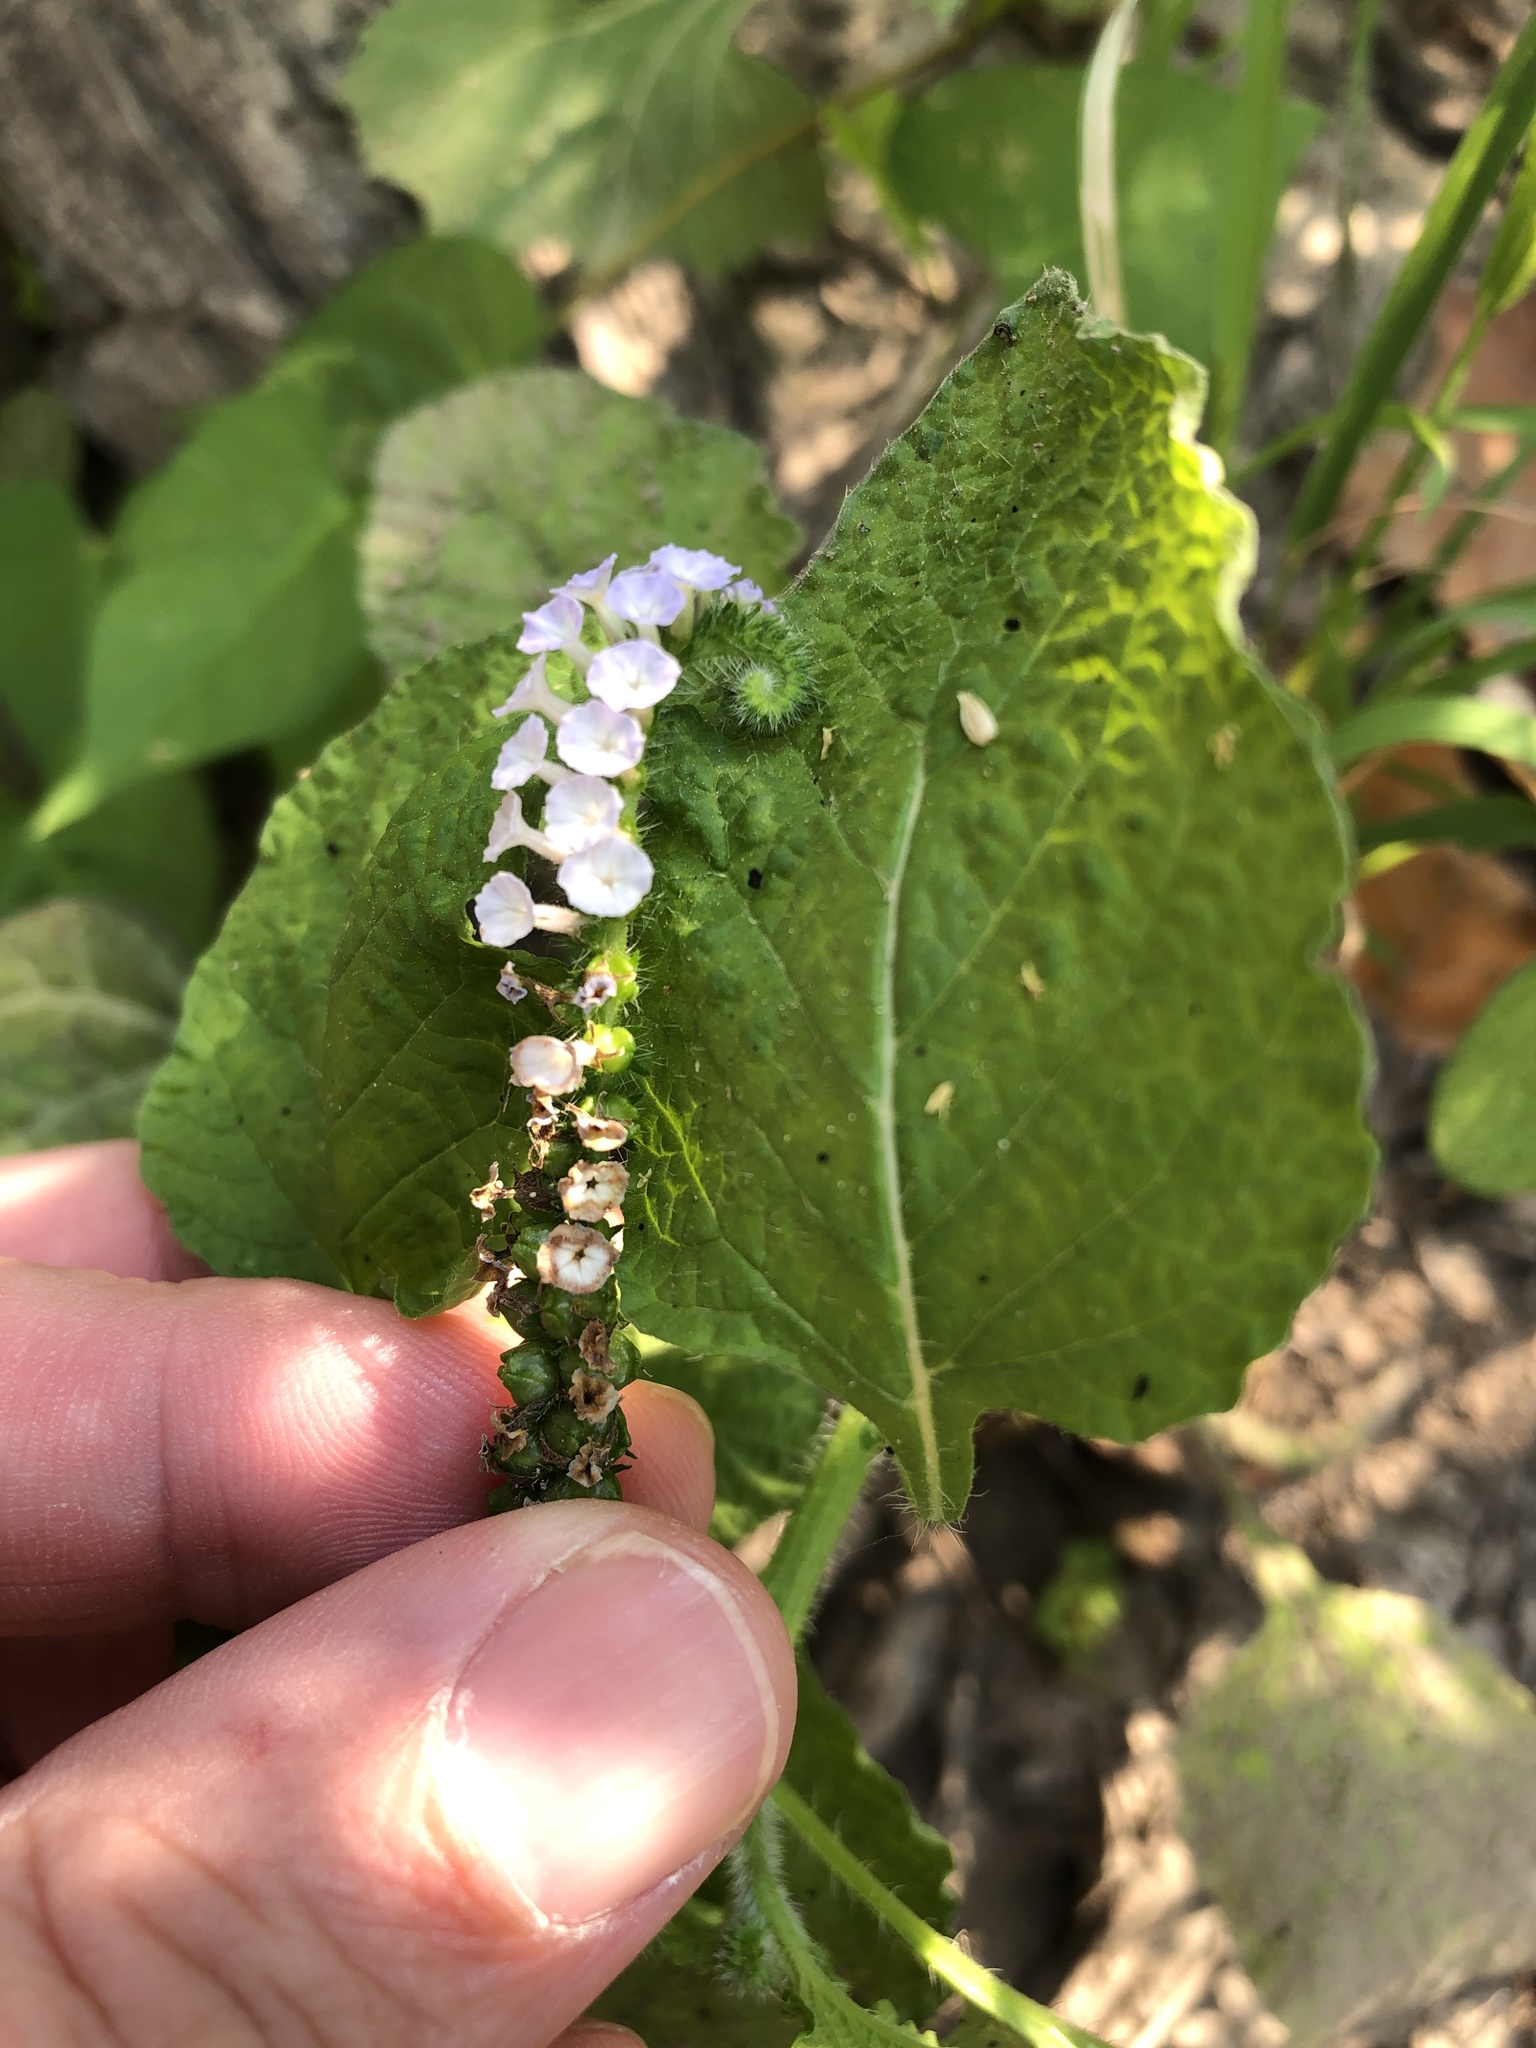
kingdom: Plantae
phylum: Tracheophyta
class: Magnoliopsida
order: Boraginales
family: Heliotropiaceae
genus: Heliotropium
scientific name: Heliotropium indicum
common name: Indian heliotrope
